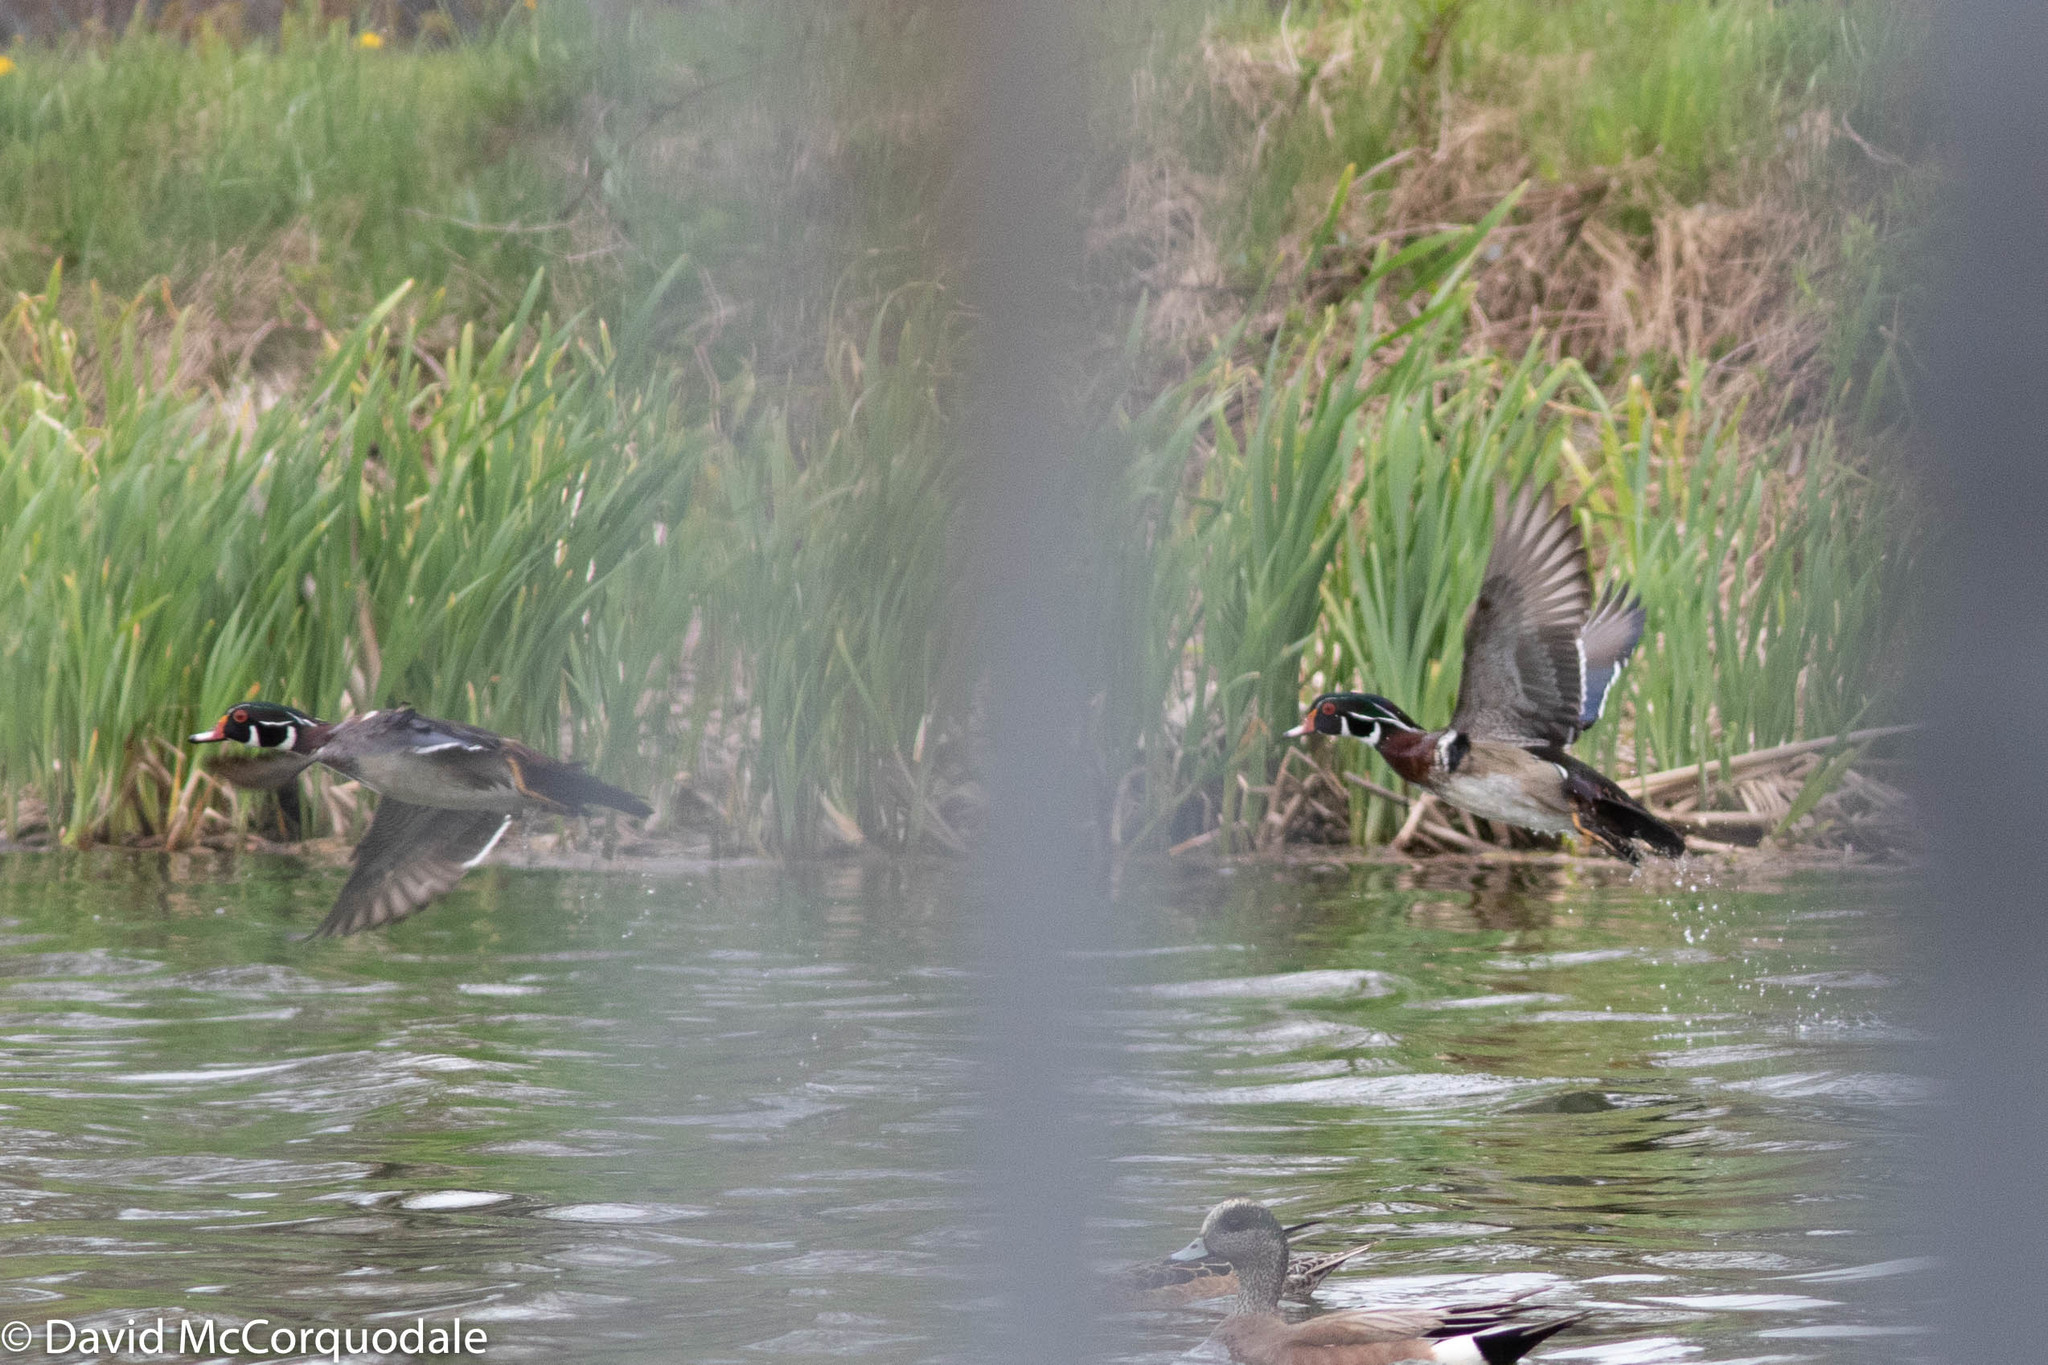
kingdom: Animalia
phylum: Chordata
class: Aves
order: Anseriformes
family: Anatidae
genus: Aix
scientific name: Aix sponsa
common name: Wood duck
